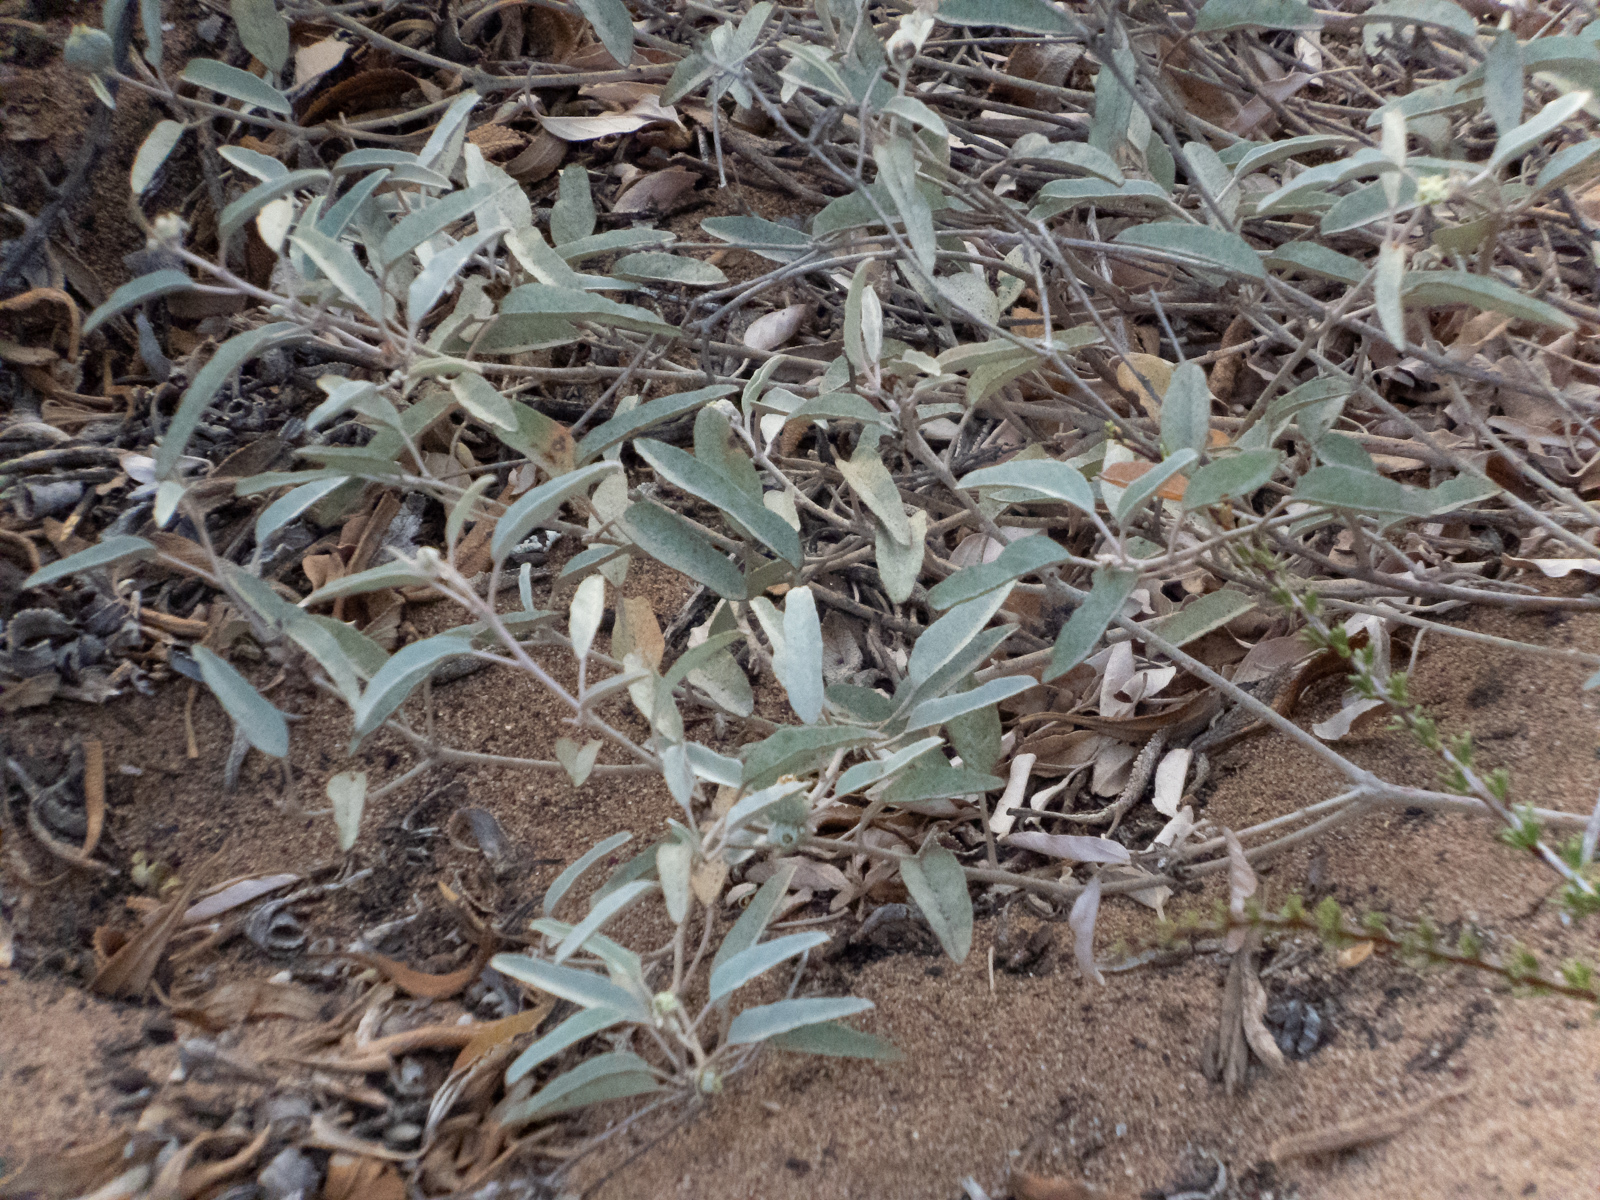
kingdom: Plantae
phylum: Tracheophyta
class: Magnoliopsida
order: Malpighiales
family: Euphorbiaceae
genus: Croton
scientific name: Croton californicus
